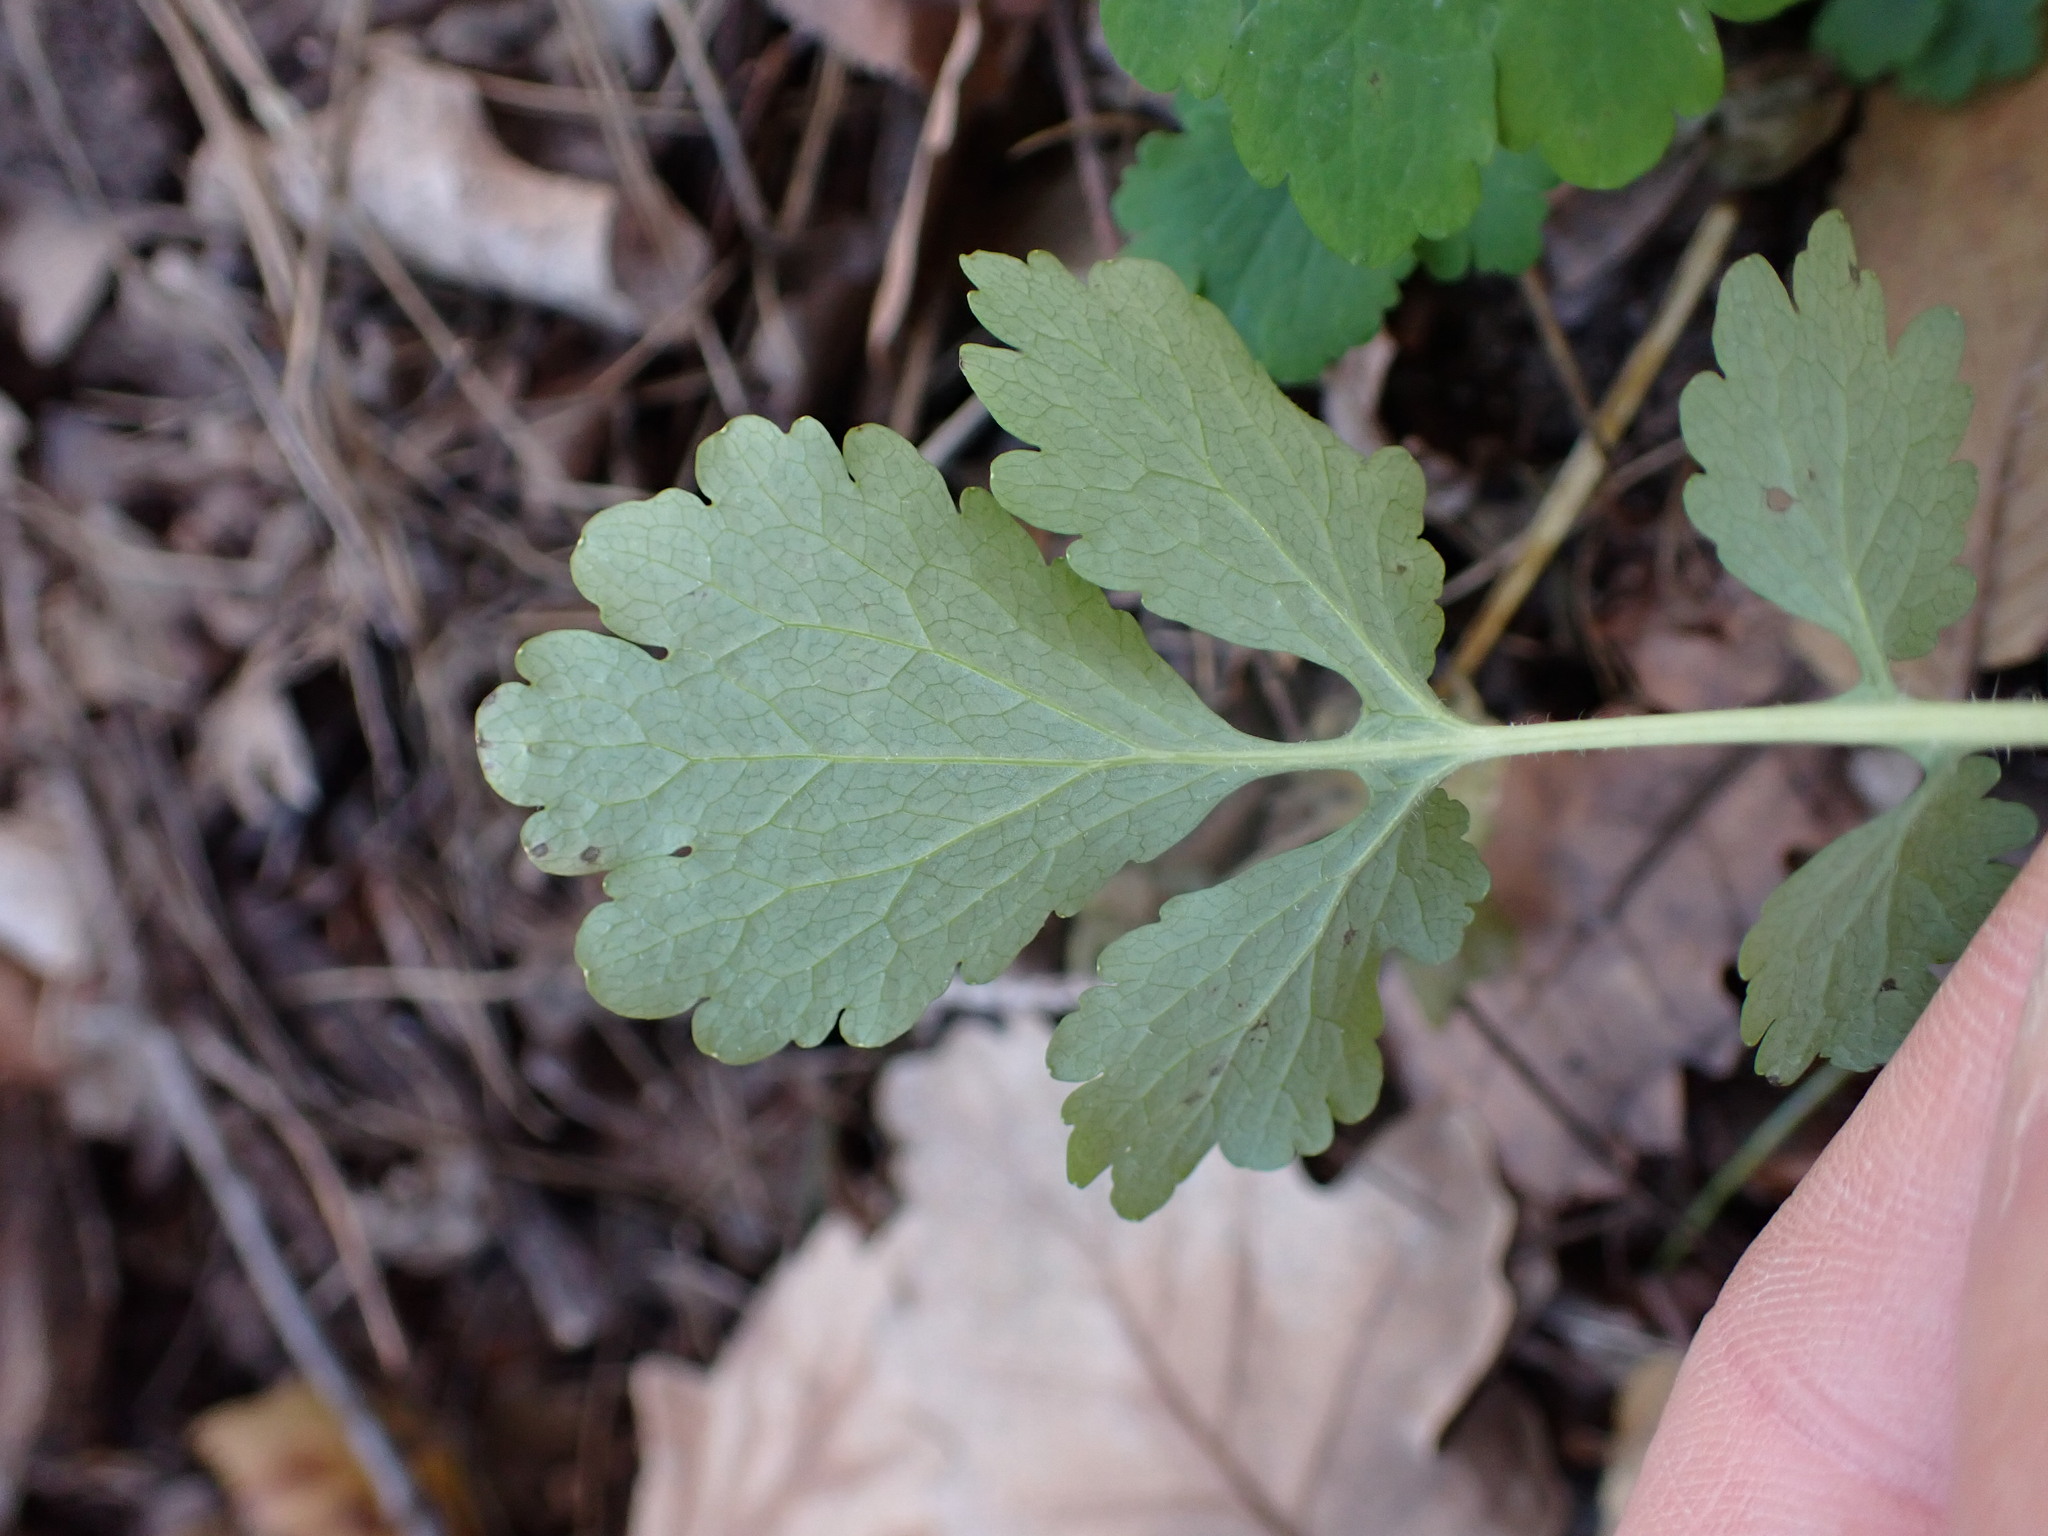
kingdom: Plantae
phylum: Tracheophyta
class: Magnoliopsida
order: Ranunculales
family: Papaveraceae
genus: Chelidonium
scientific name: Chelidonium majus
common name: Greater celandine
